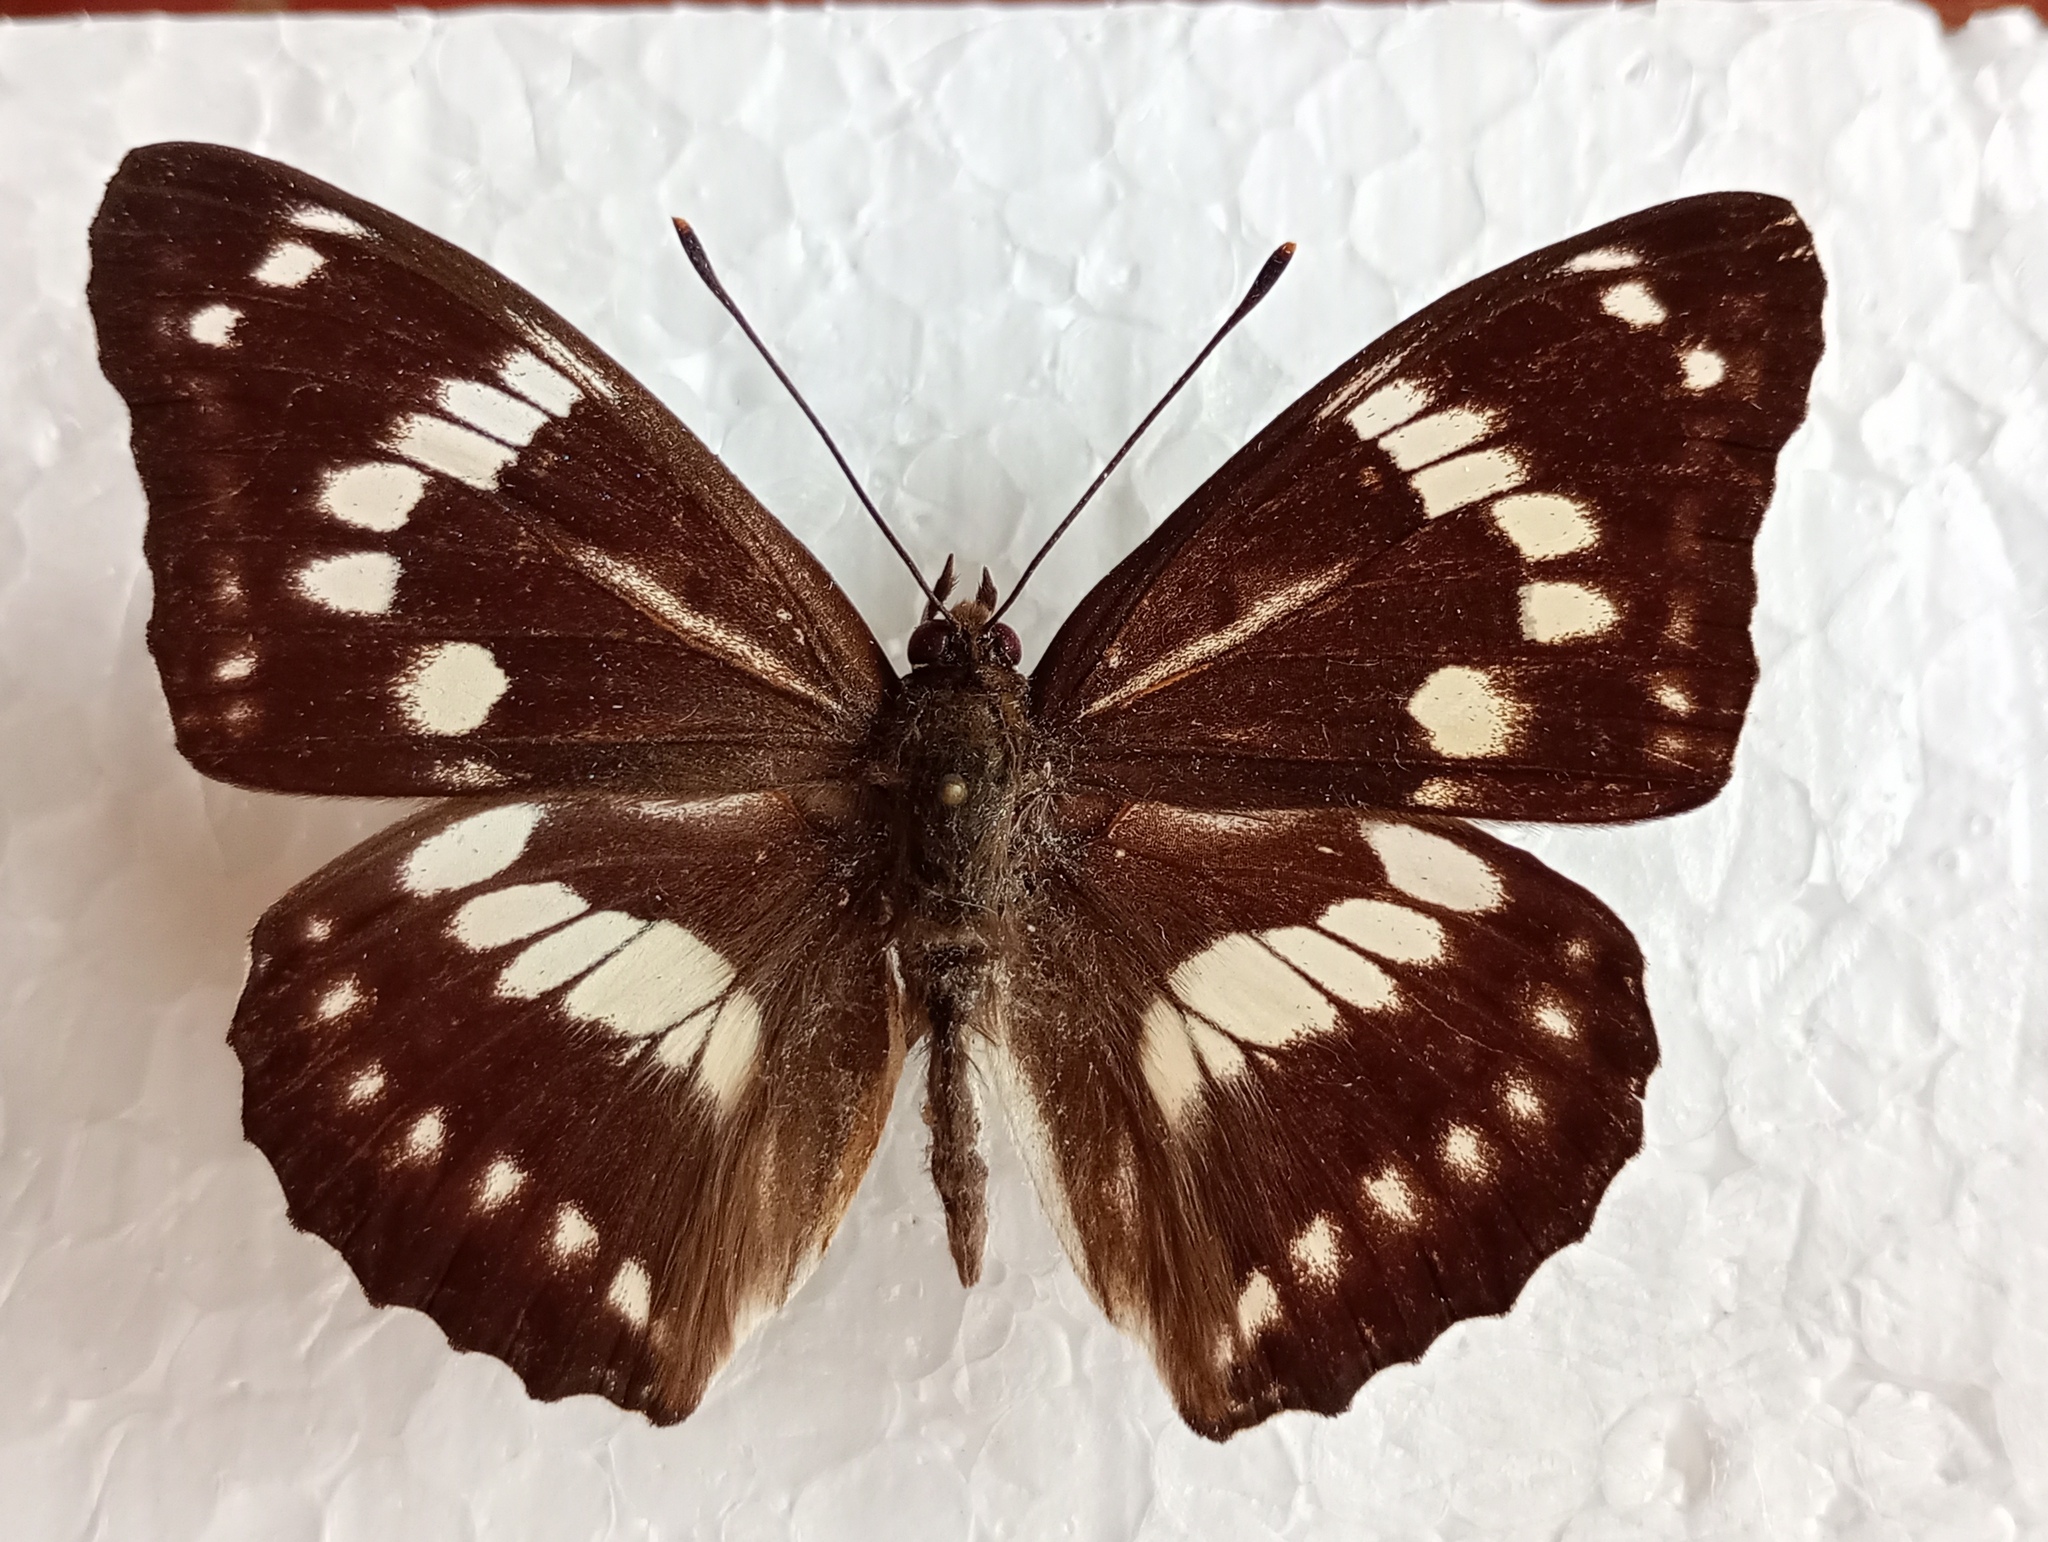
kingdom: Animalia
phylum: Arthropoda
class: Insecta
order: Lepidoptera
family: Nymphalidae
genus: Apatura
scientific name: Apatura nycteis
